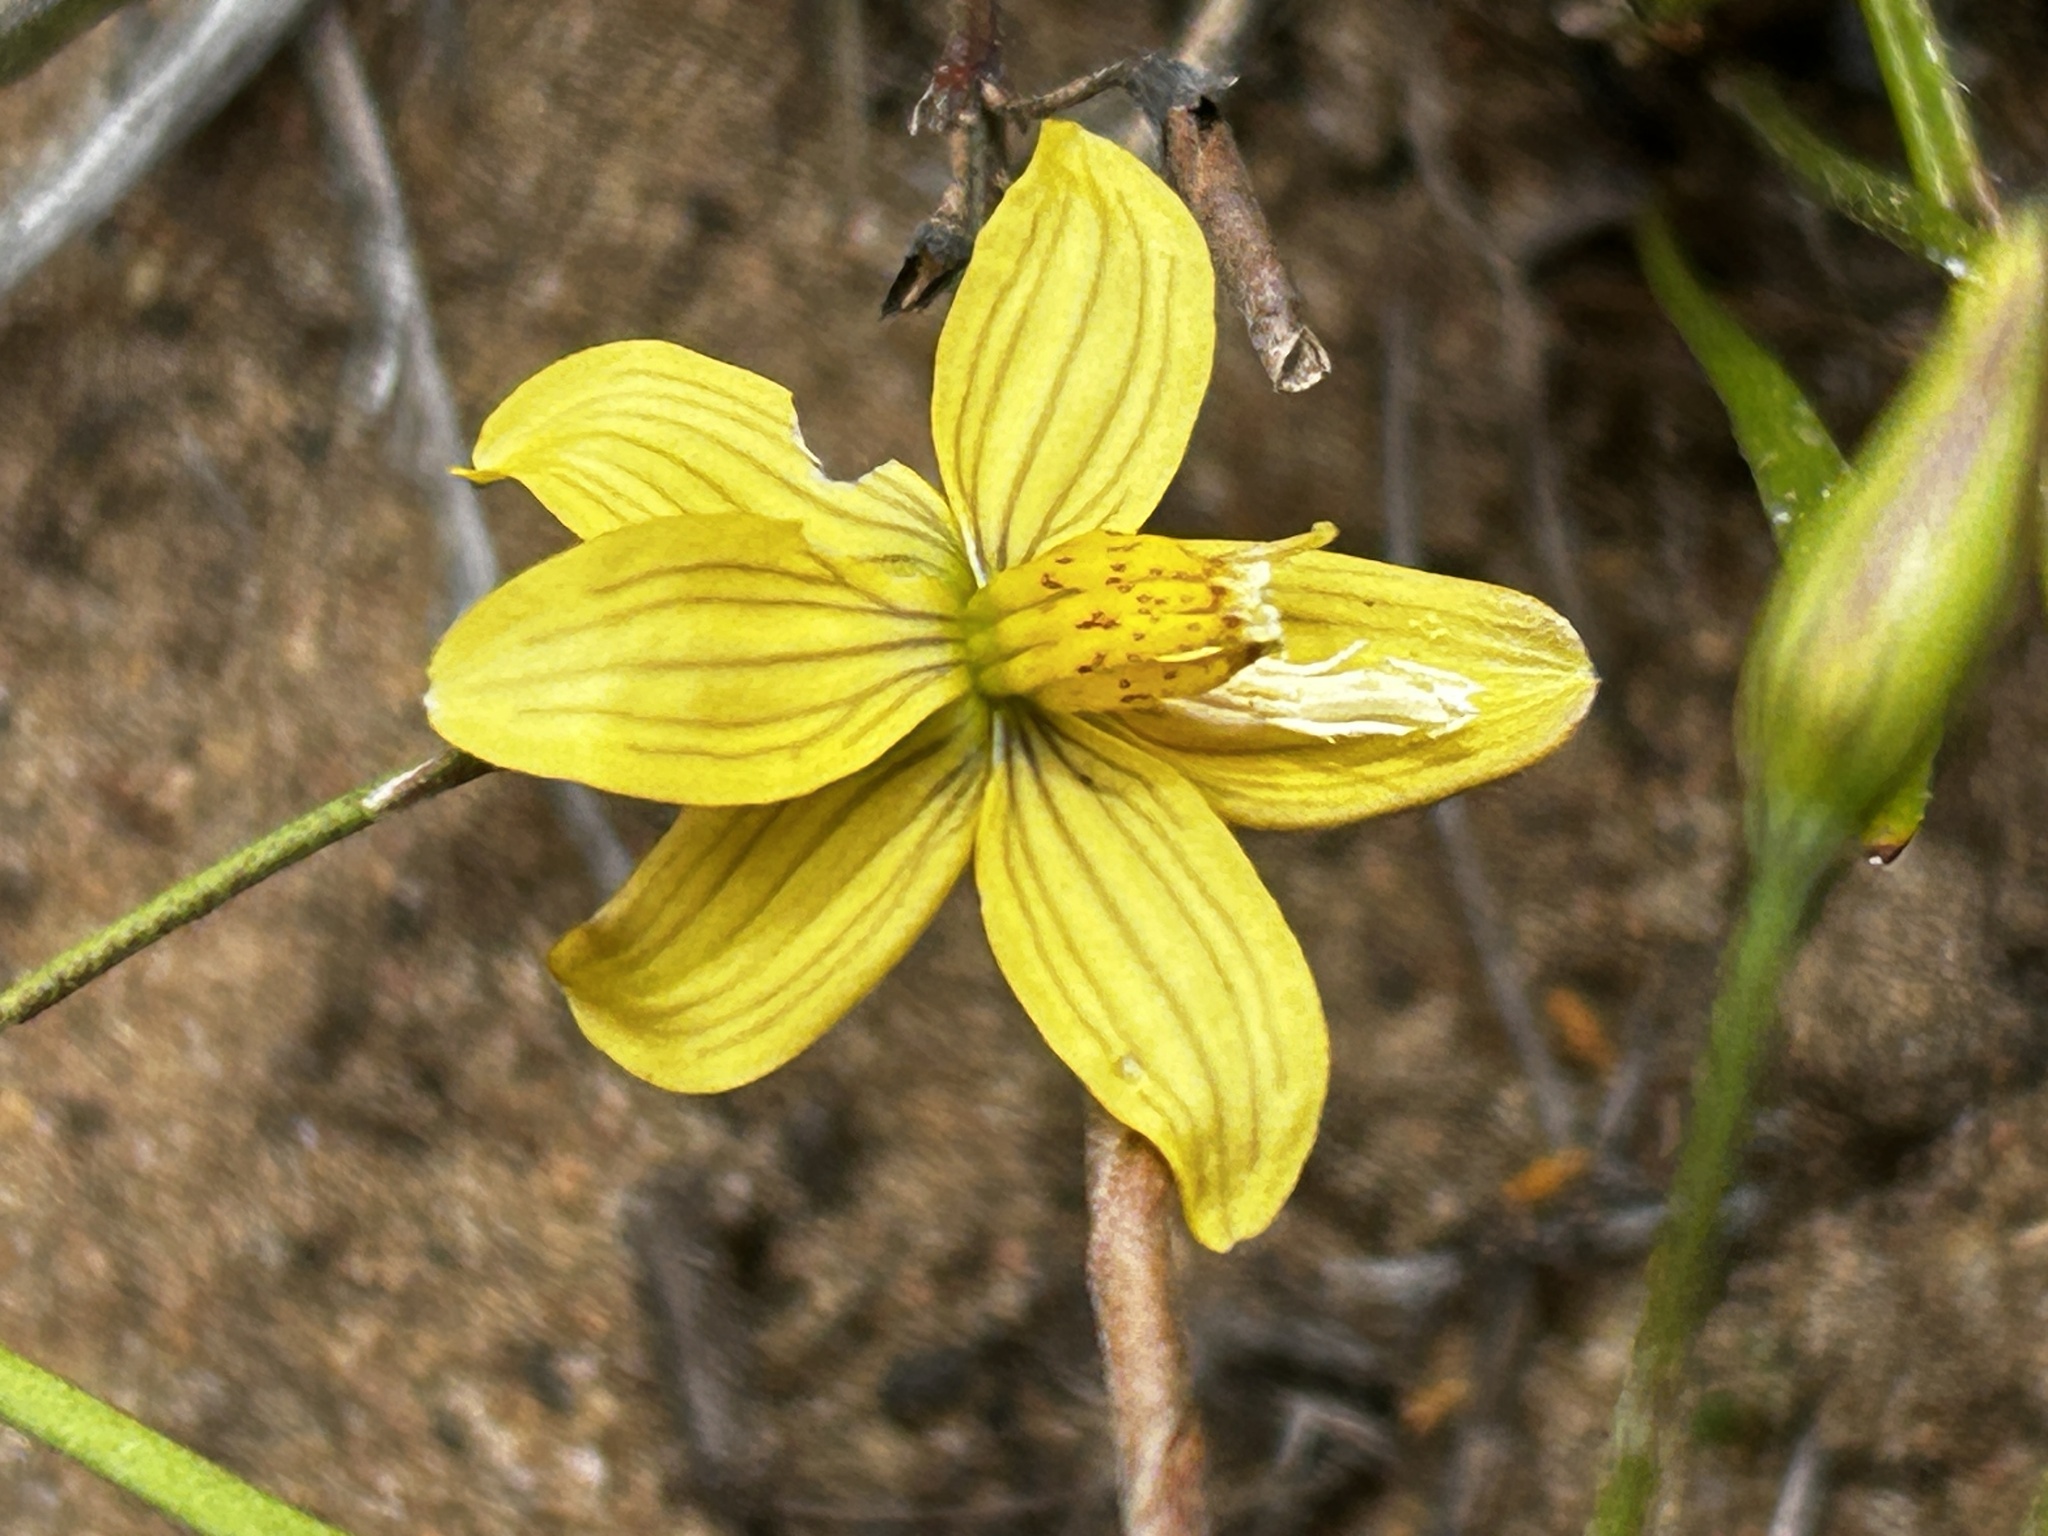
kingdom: Plantae
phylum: Tracheophyta
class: Liliopsida
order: Asparagales
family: Tecophilaeaceae
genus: Cyanella
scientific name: Cyanella lutea
